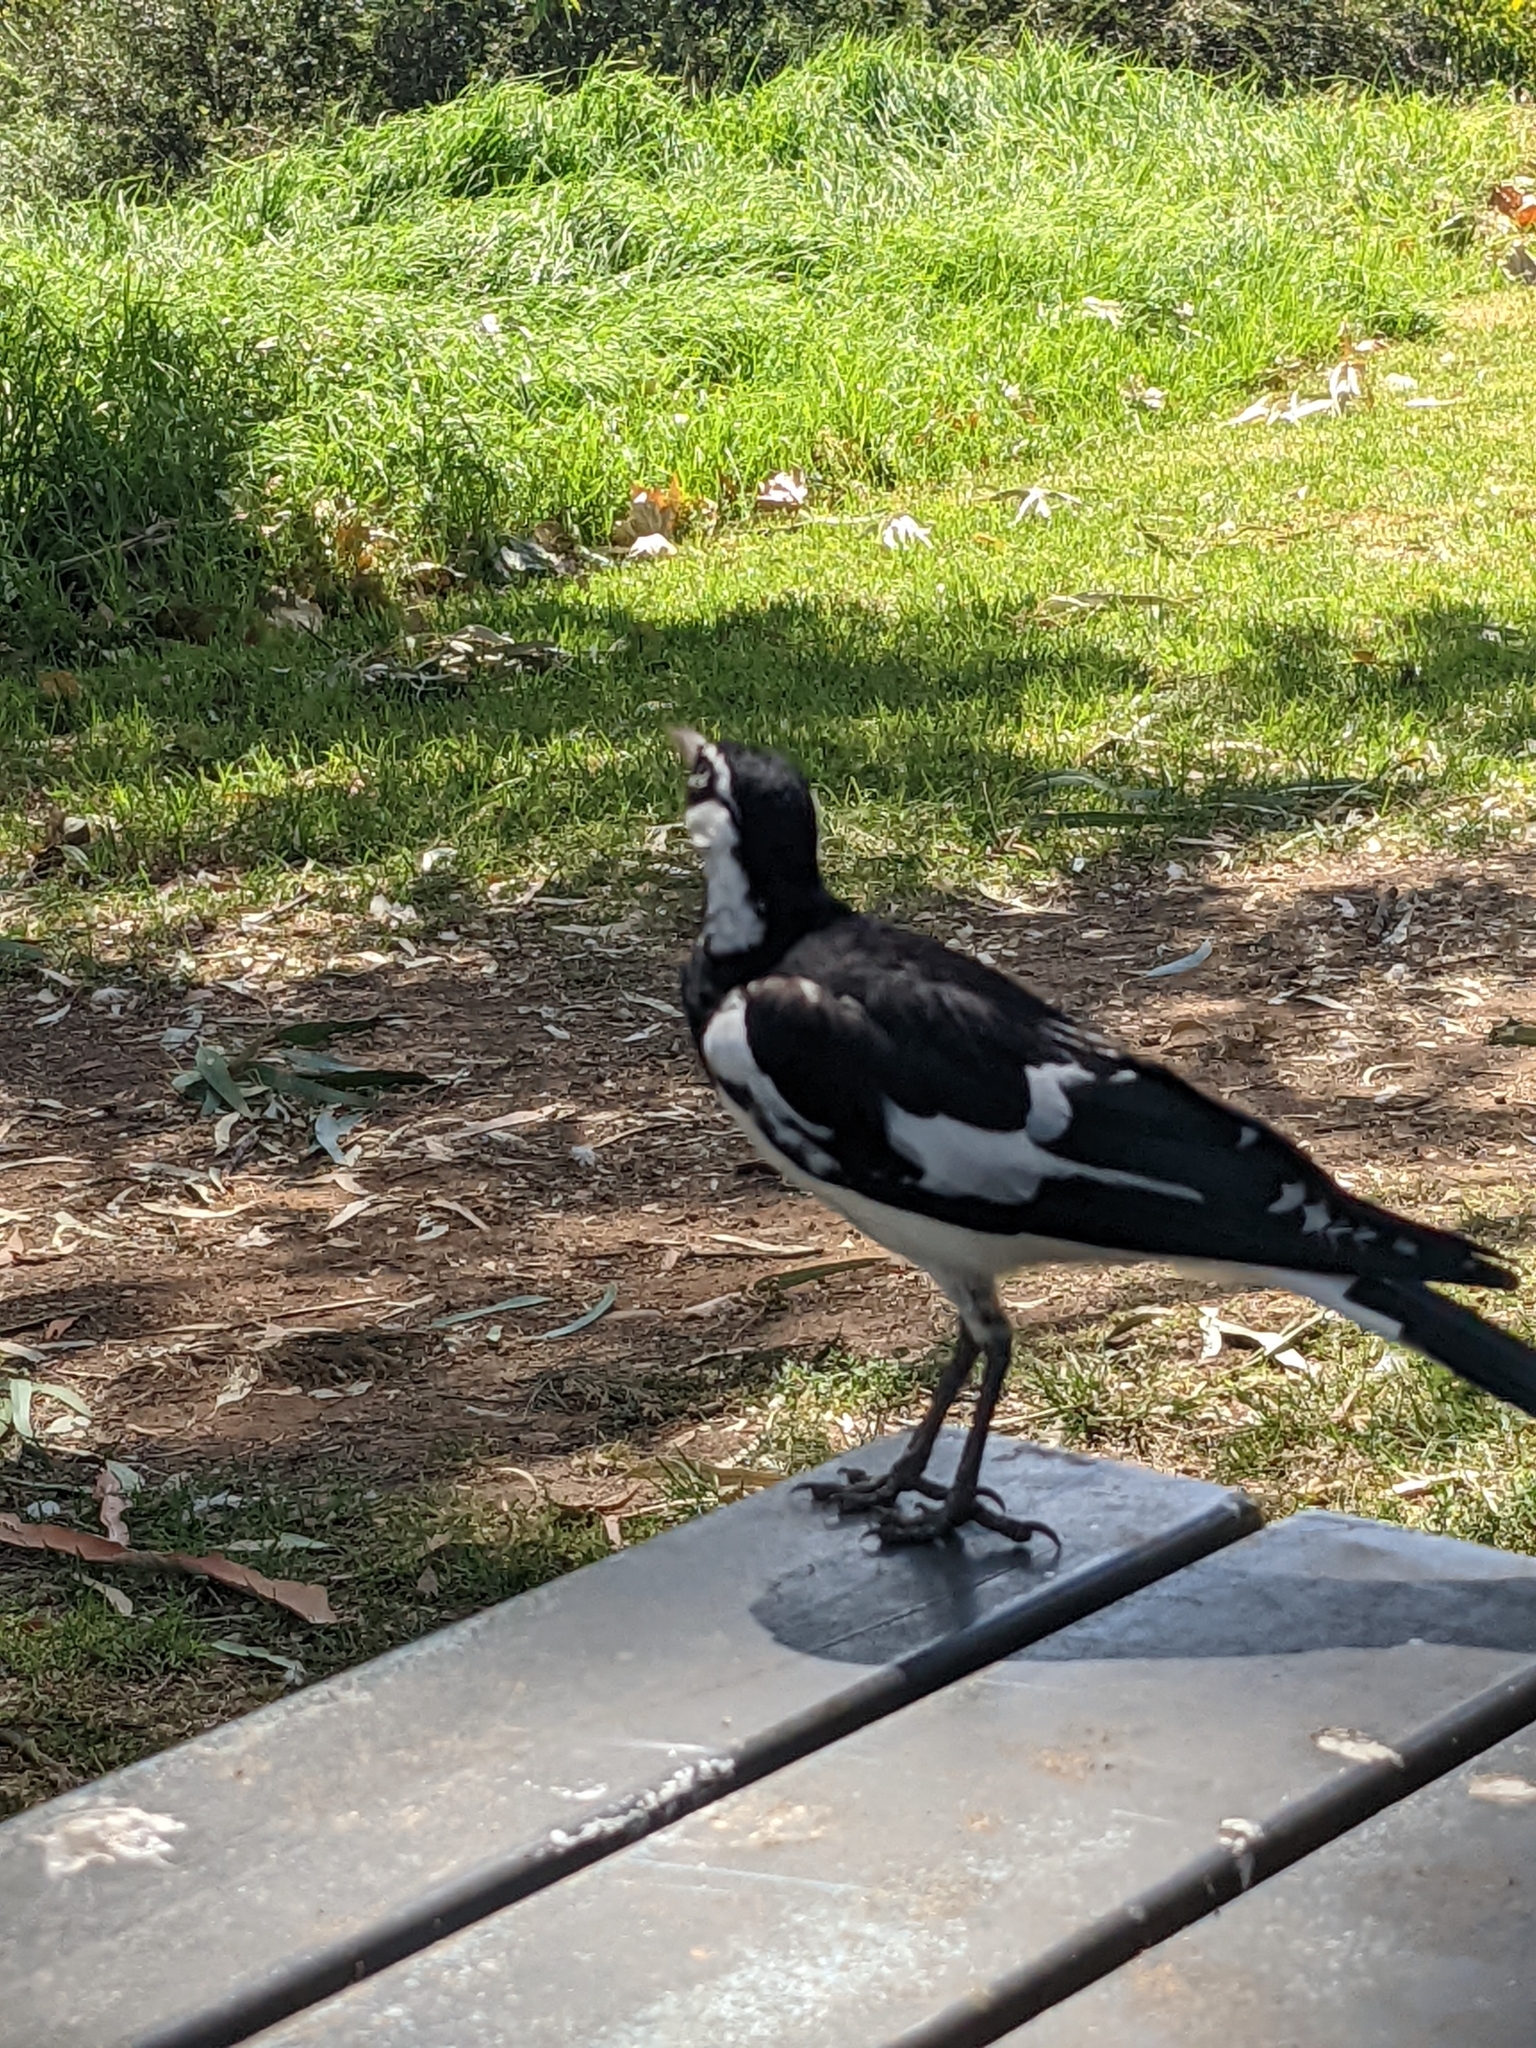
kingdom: Animalia
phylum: Chordata
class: Aves
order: Passeriformes
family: Monarchidae
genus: Grallina
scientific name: Grallina cyanoleuca
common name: Magpie-lark
